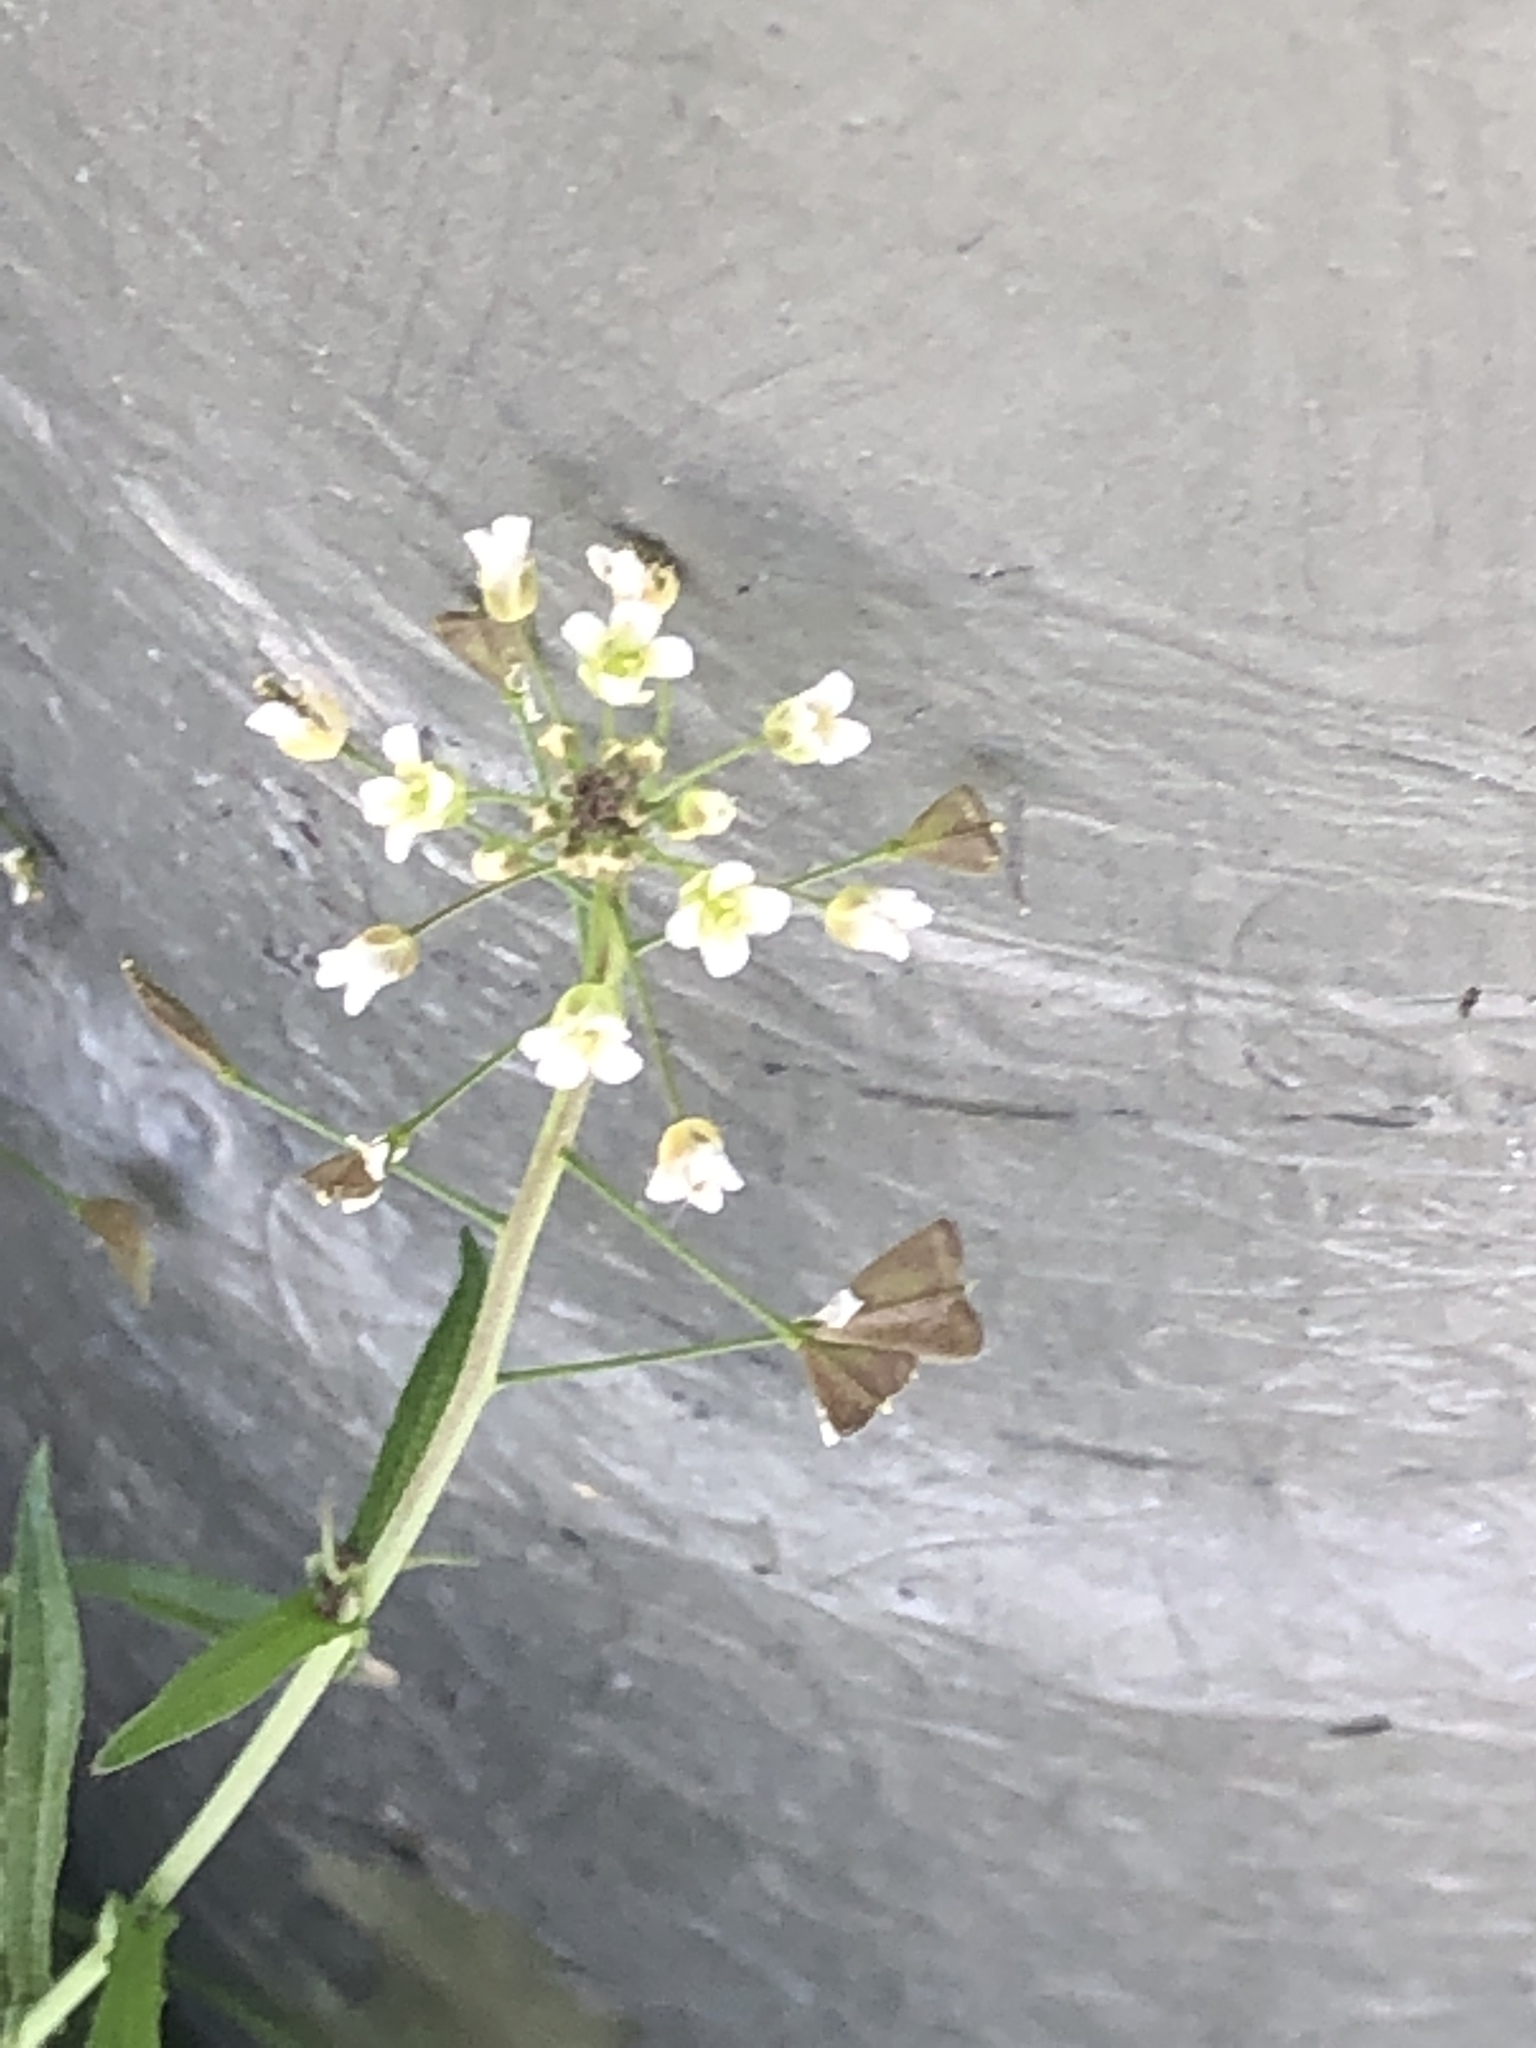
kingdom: Plantae
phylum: Tracheophyta
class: Magnoliopsida
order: Brassicales
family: Brassicaceae
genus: Capsella
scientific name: Capsella bursa-pastoris
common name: Shepherd's purse
